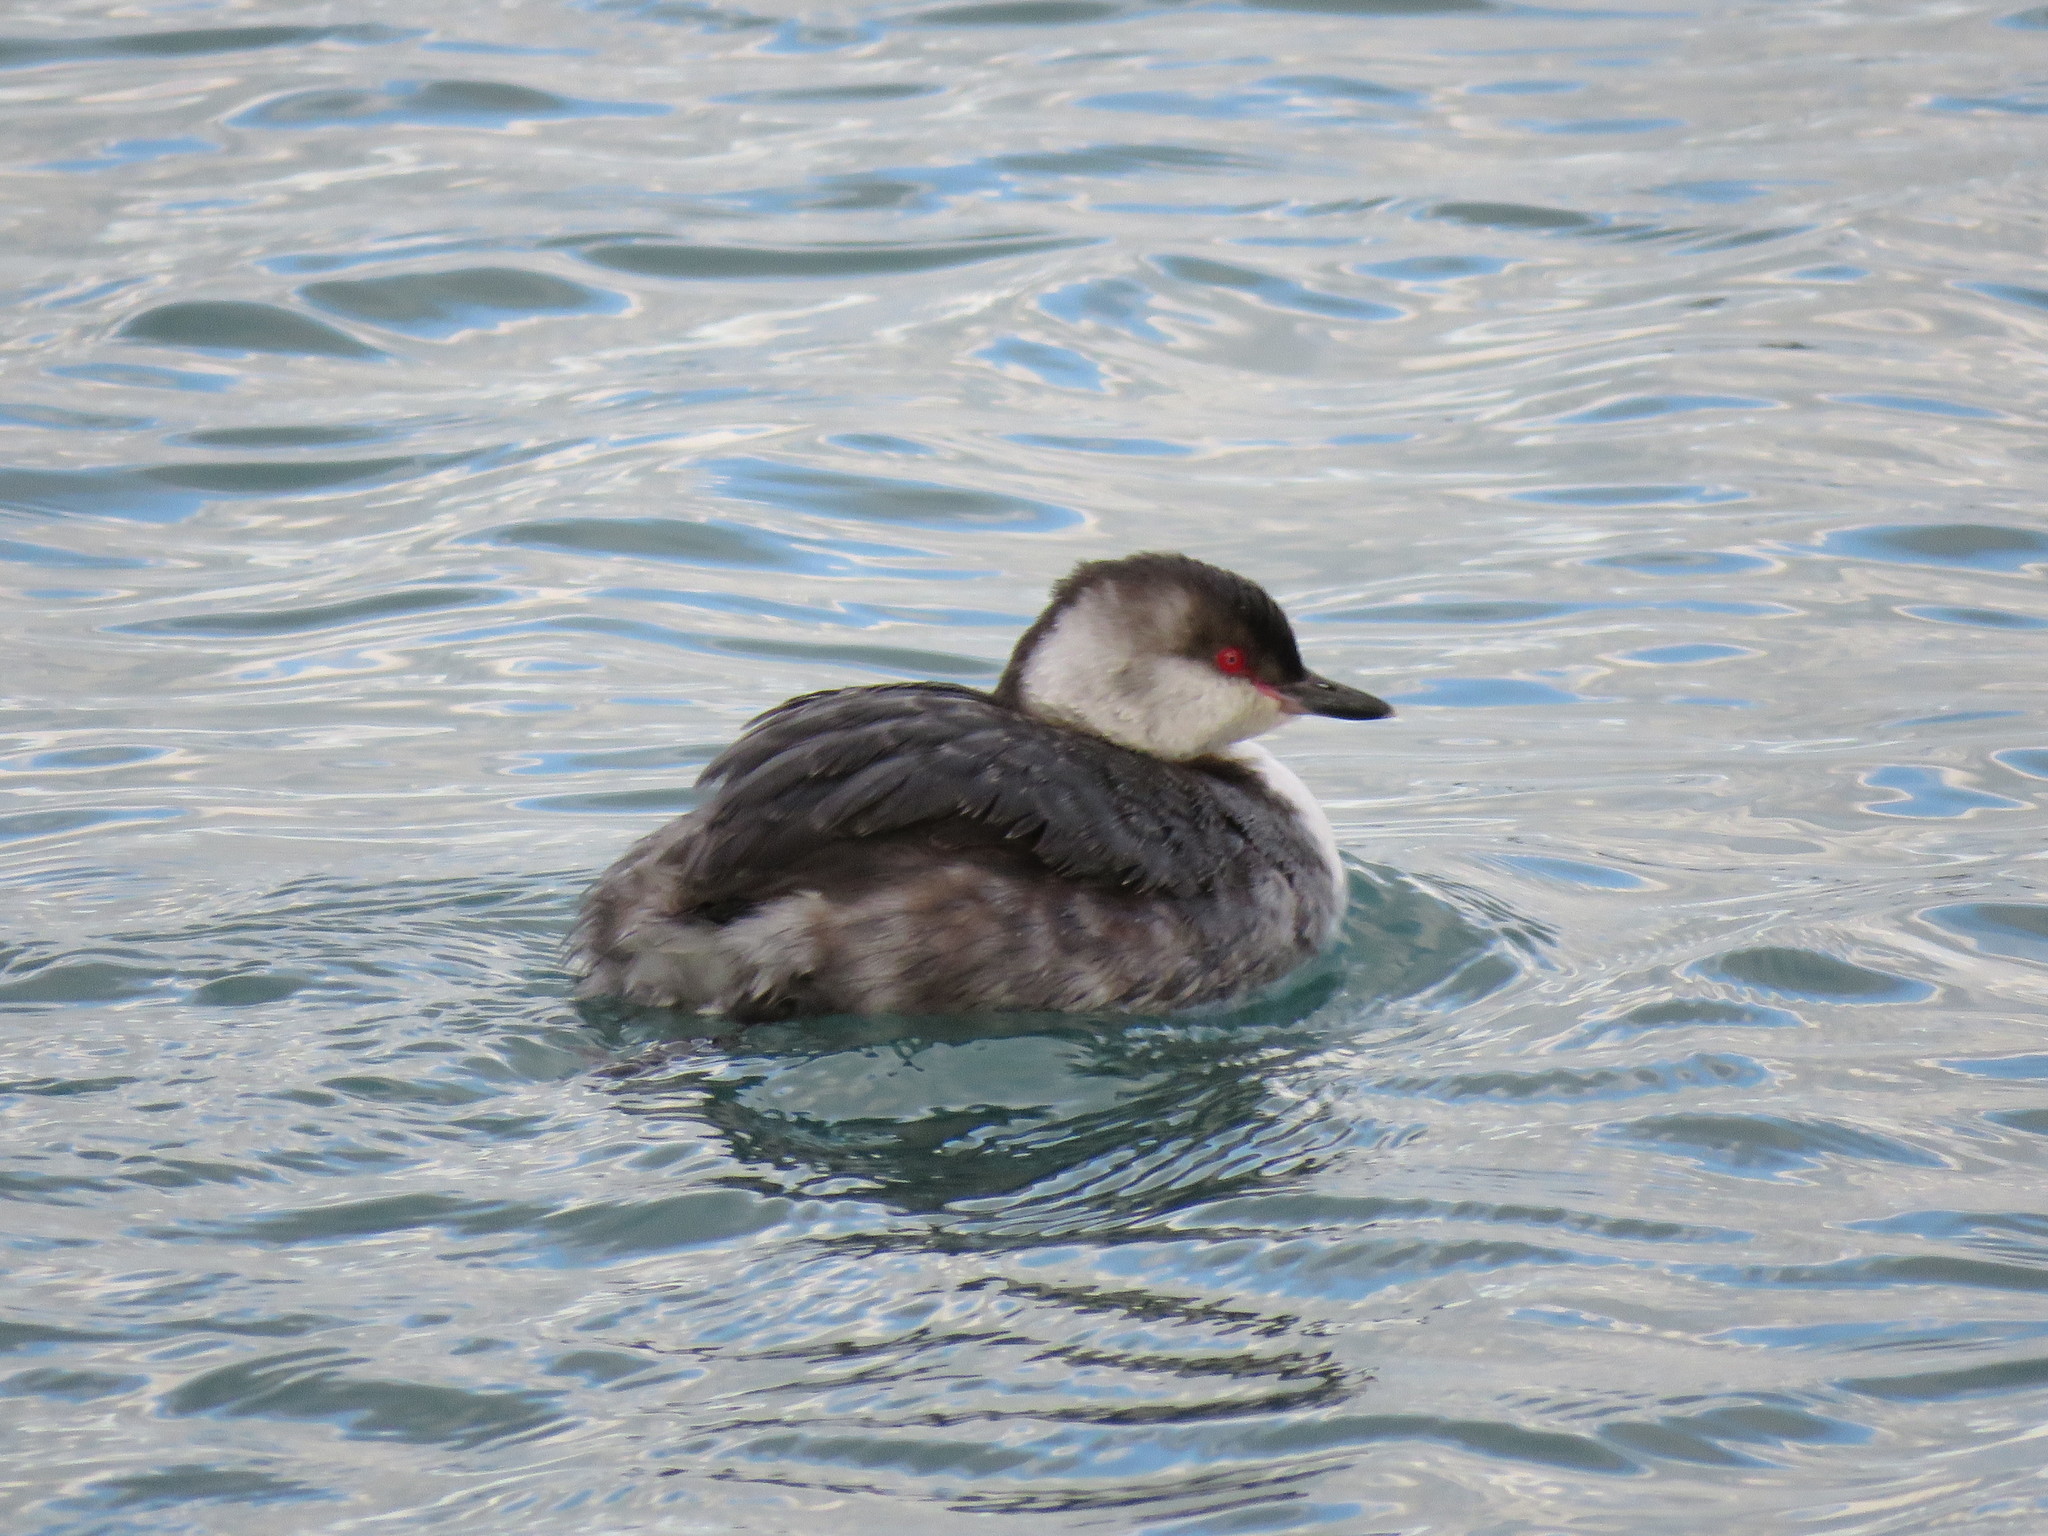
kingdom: Animalia
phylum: Chordata
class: Aves
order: Podicipediformes
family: Podicipedidae
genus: Podiceps
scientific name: Podiceps auritus
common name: Horned grebe
